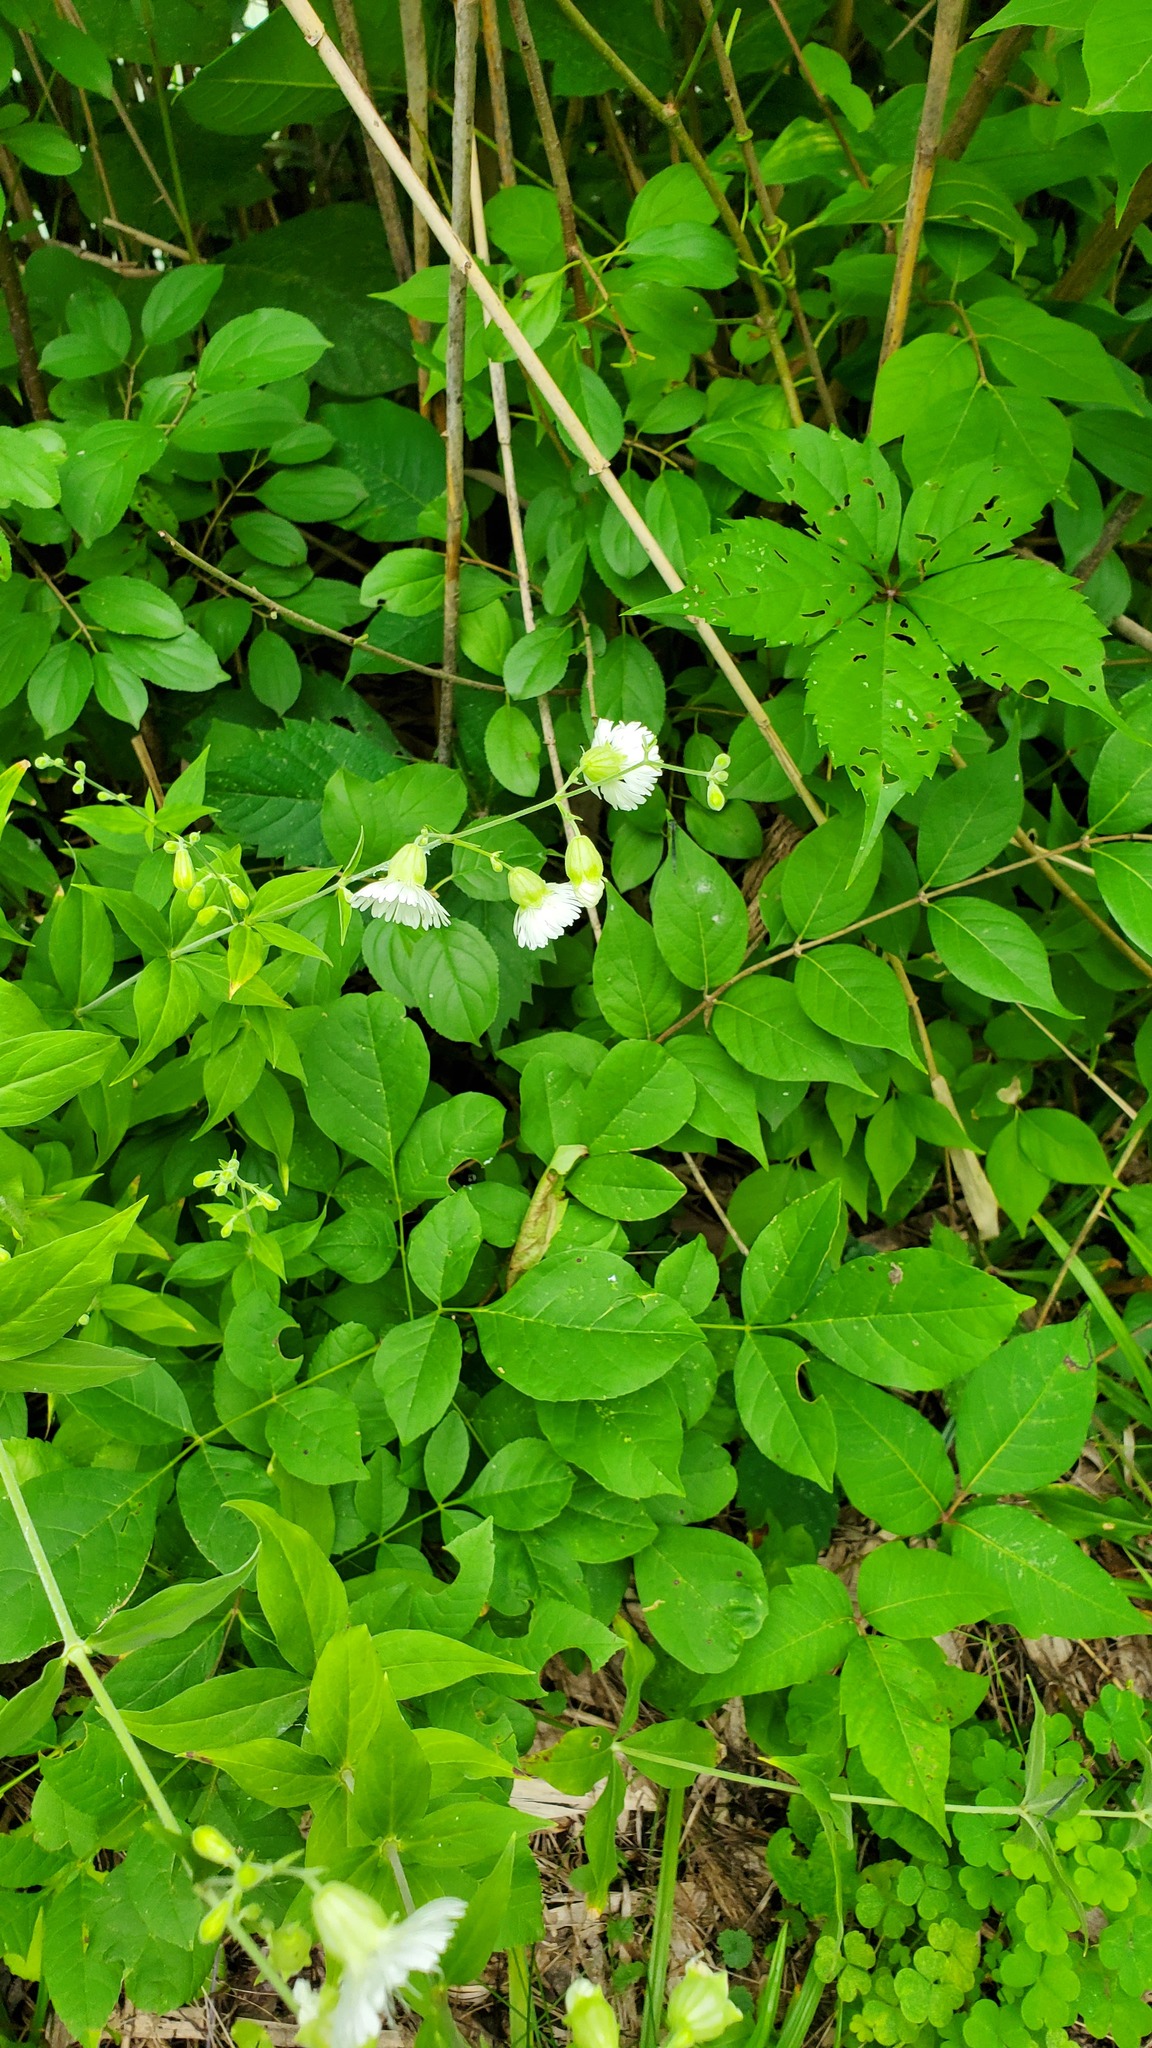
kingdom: Plantae
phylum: Tracheophyta
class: Magnoliopsida
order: Caryophyllales
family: Caryophyllaceae
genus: Silene
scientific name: Silene stellata
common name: Starry campion
